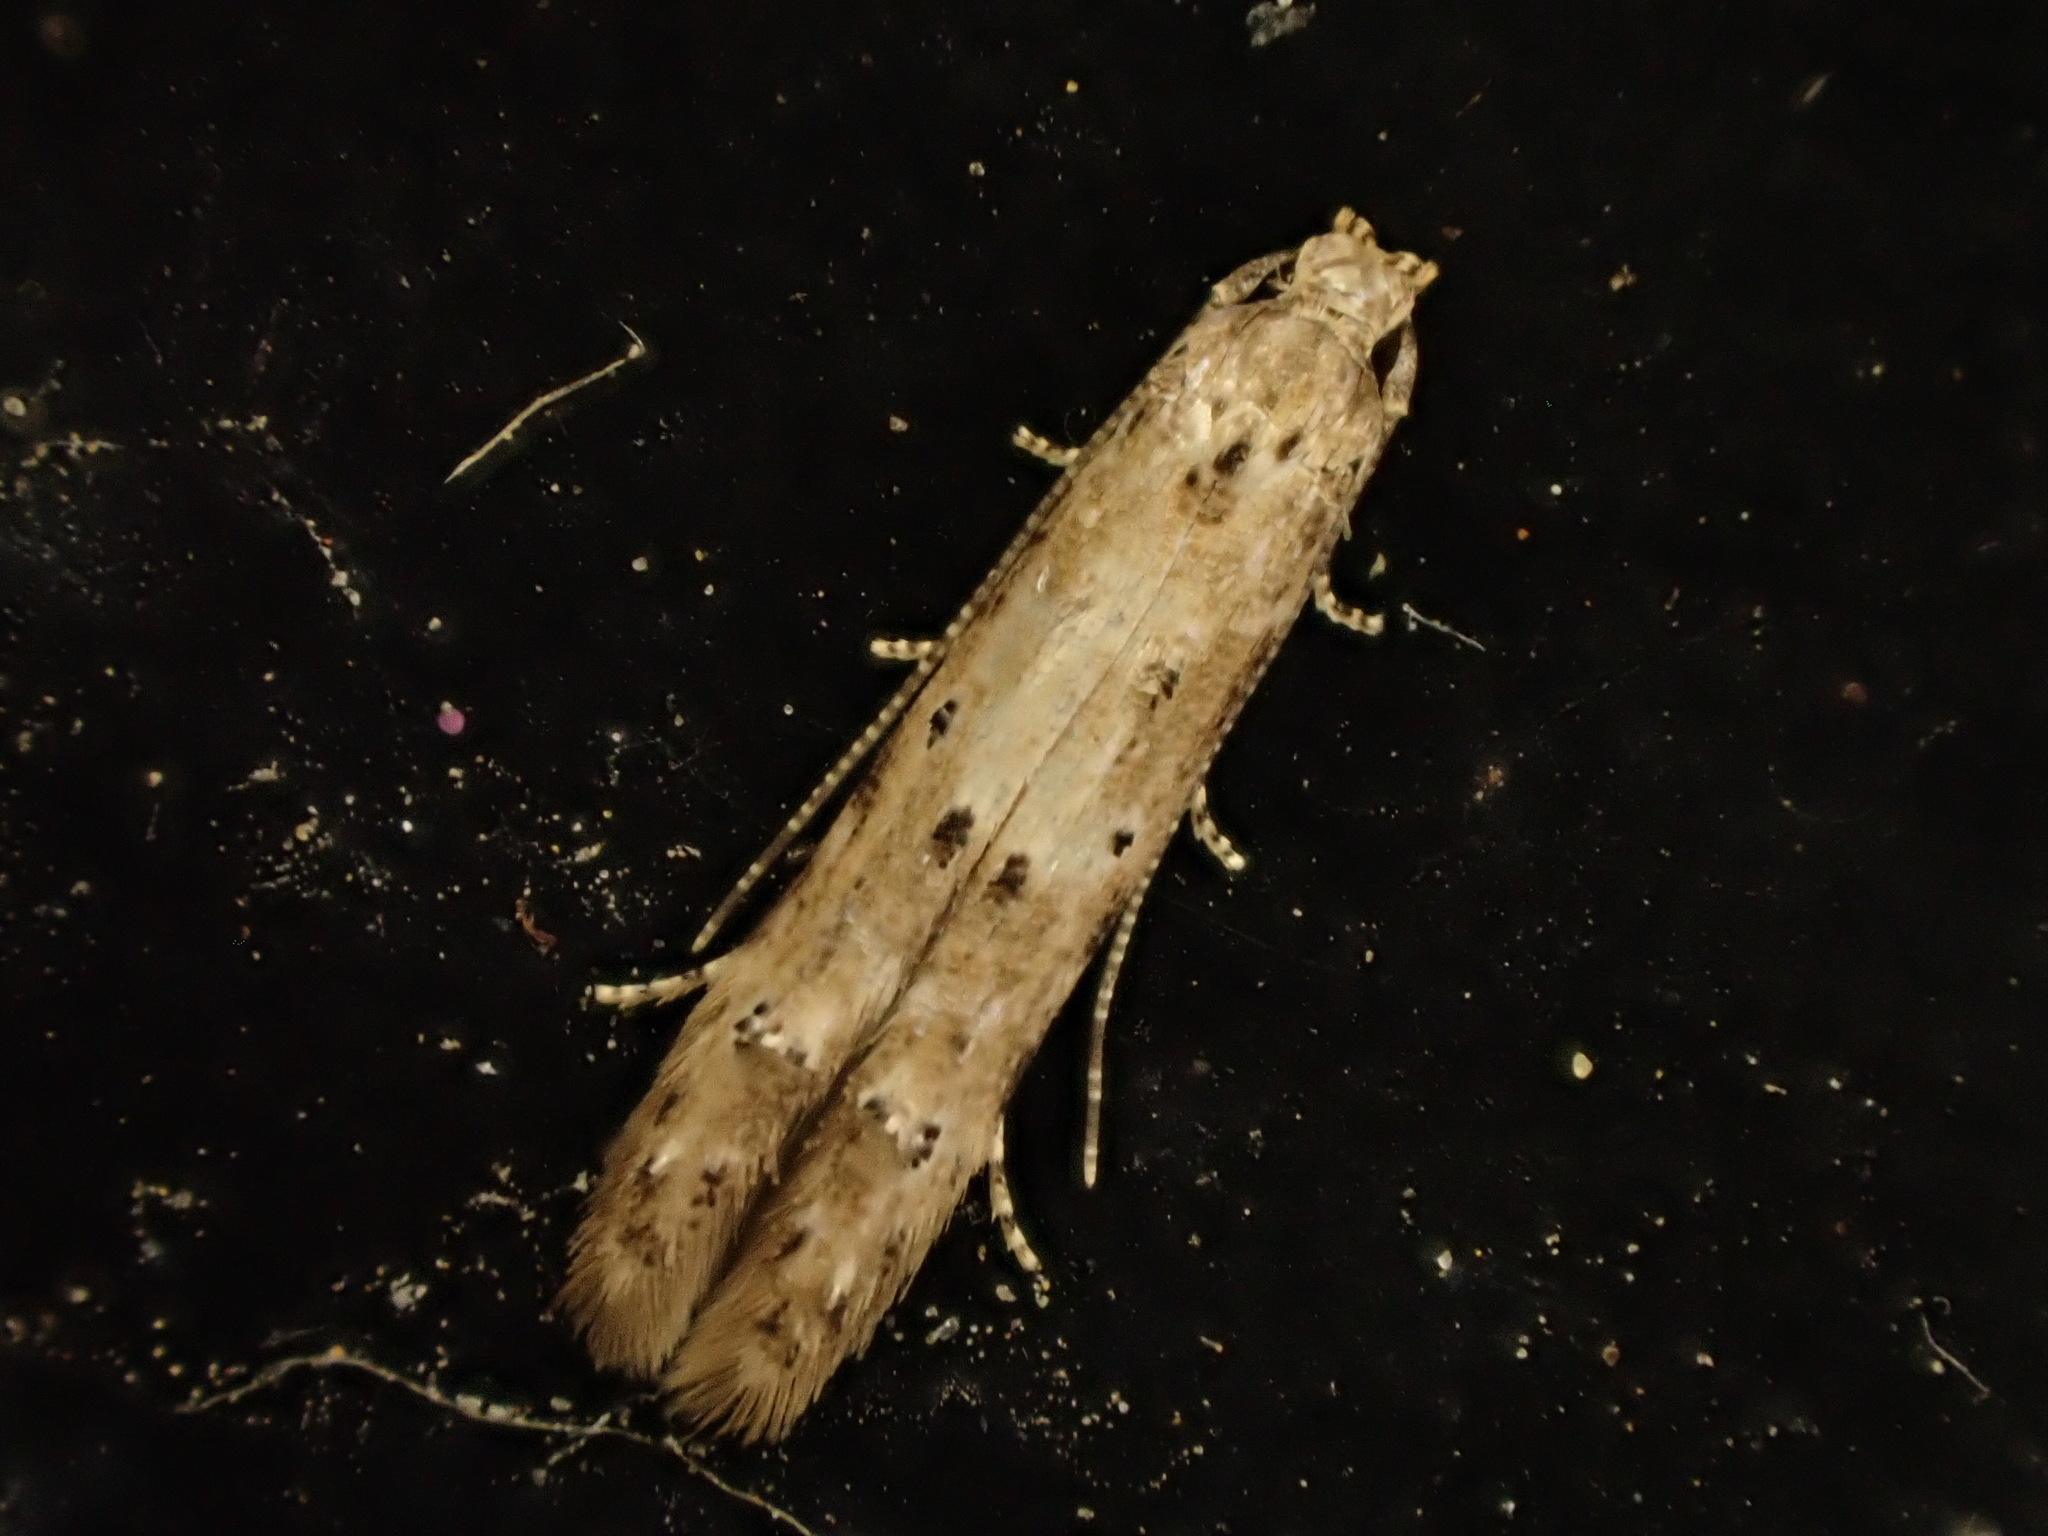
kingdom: Animalia
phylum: Arthropoda
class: Insecta
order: Lepidoptera
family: Elachistidae
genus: Microcolona
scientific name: Microcolona limodes
